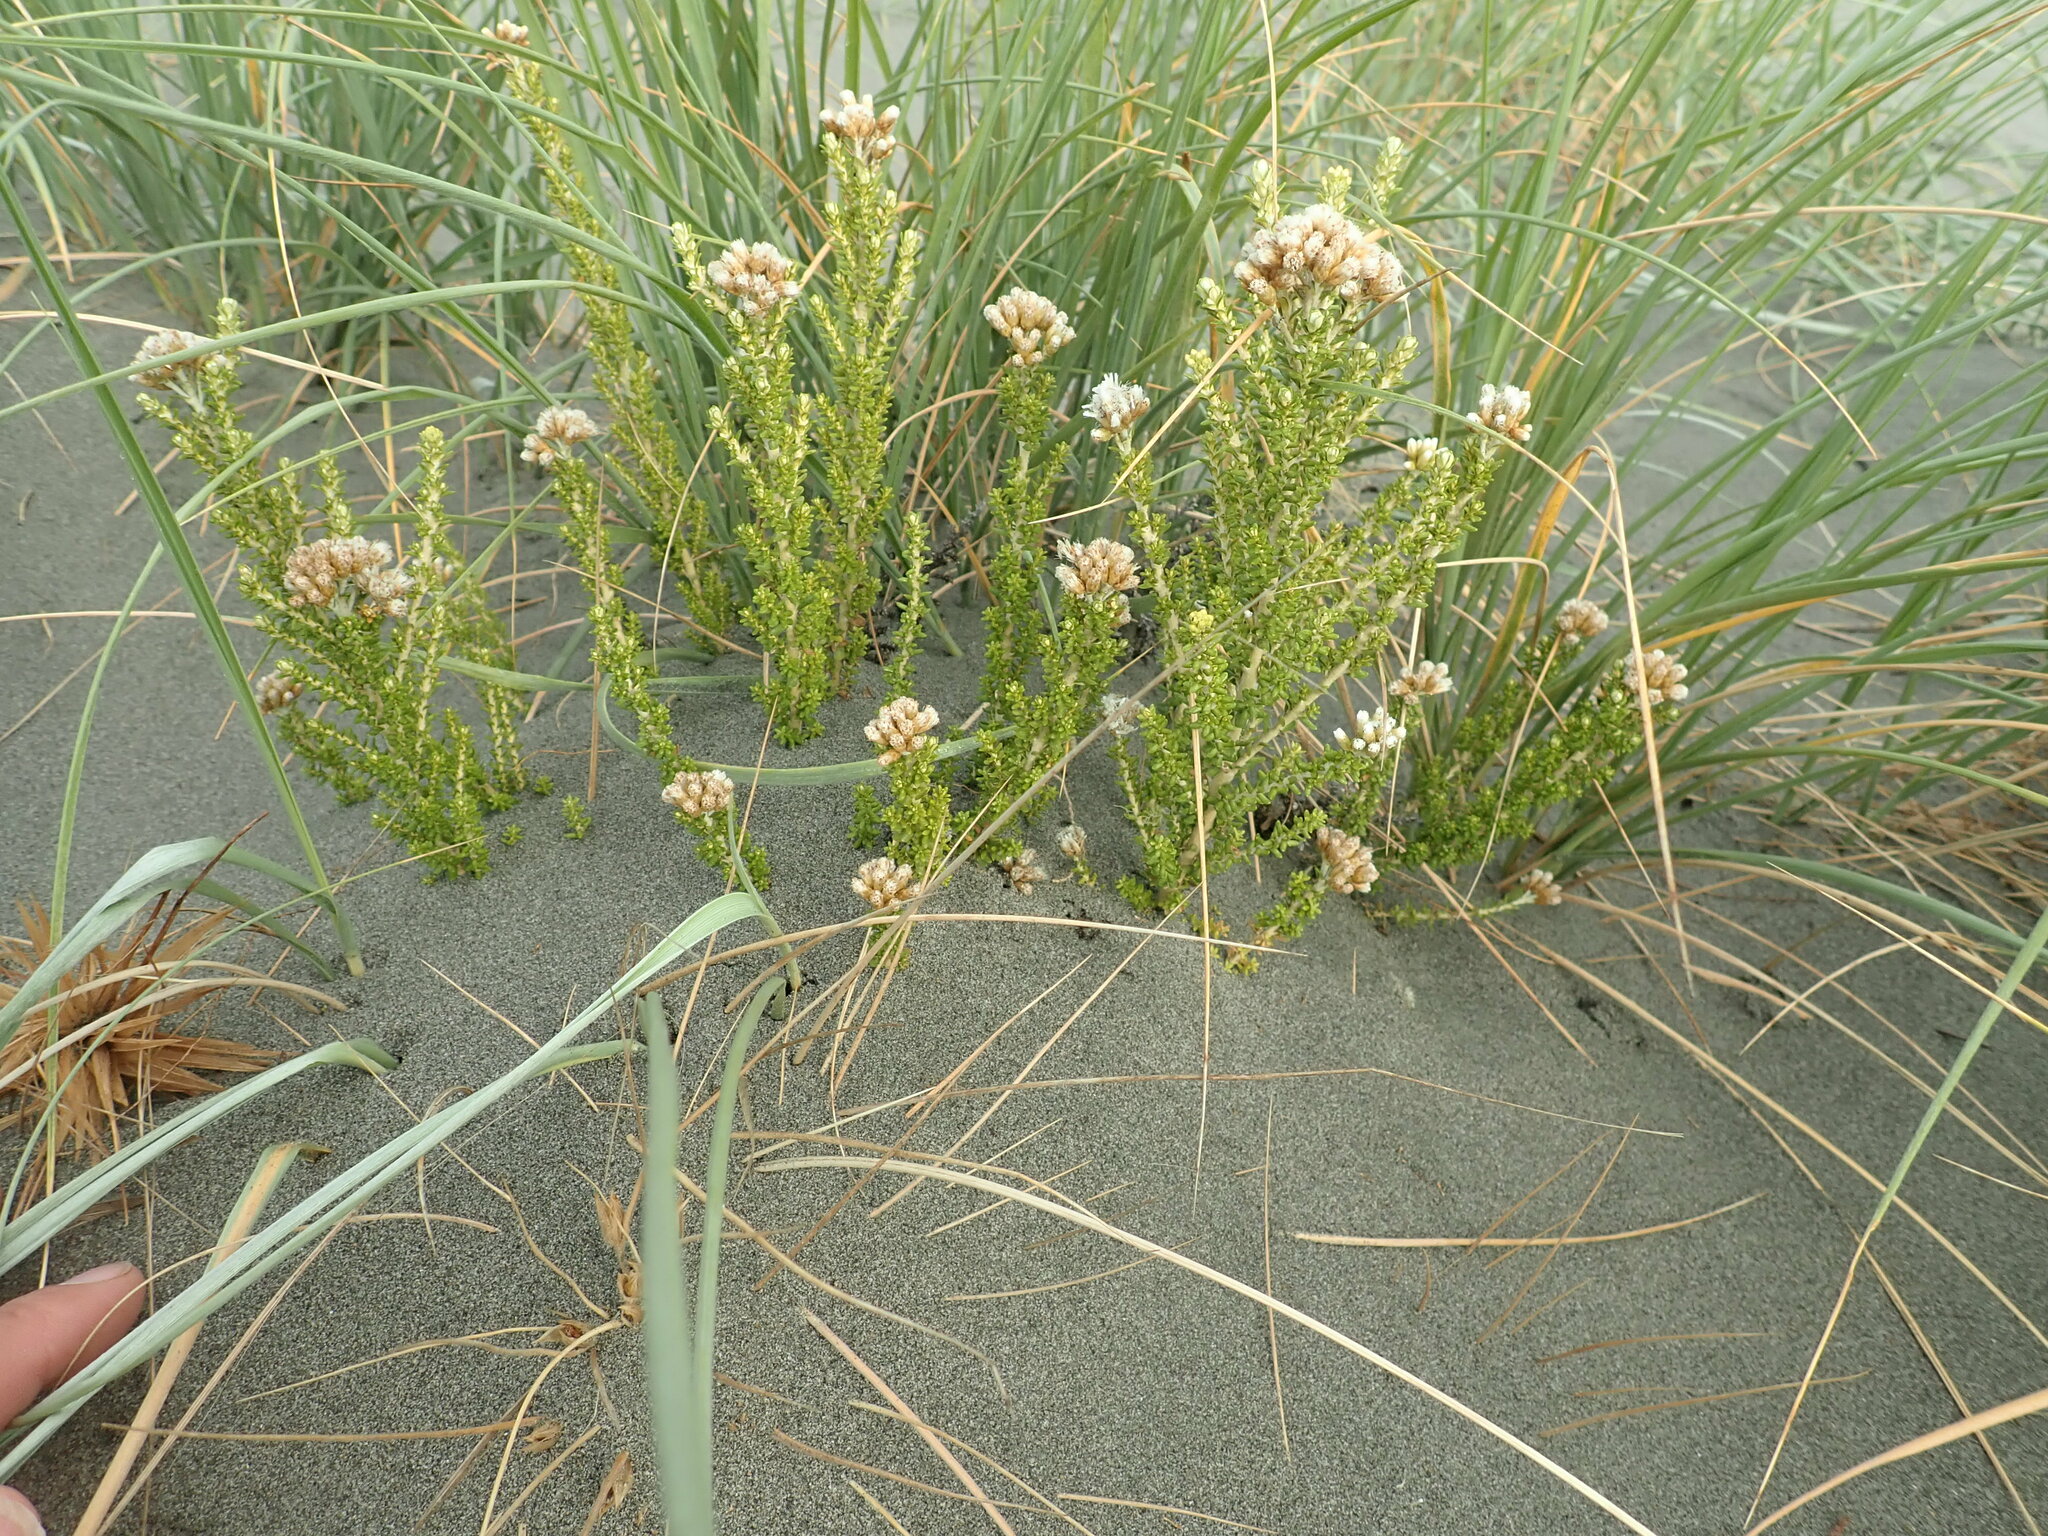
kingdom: Plantae
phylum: Tracheophyta
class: Magnoliopsida
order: Asterales
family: Asteraceae
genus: Ozothamnus
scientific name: Ozothamnus leptophyllus
